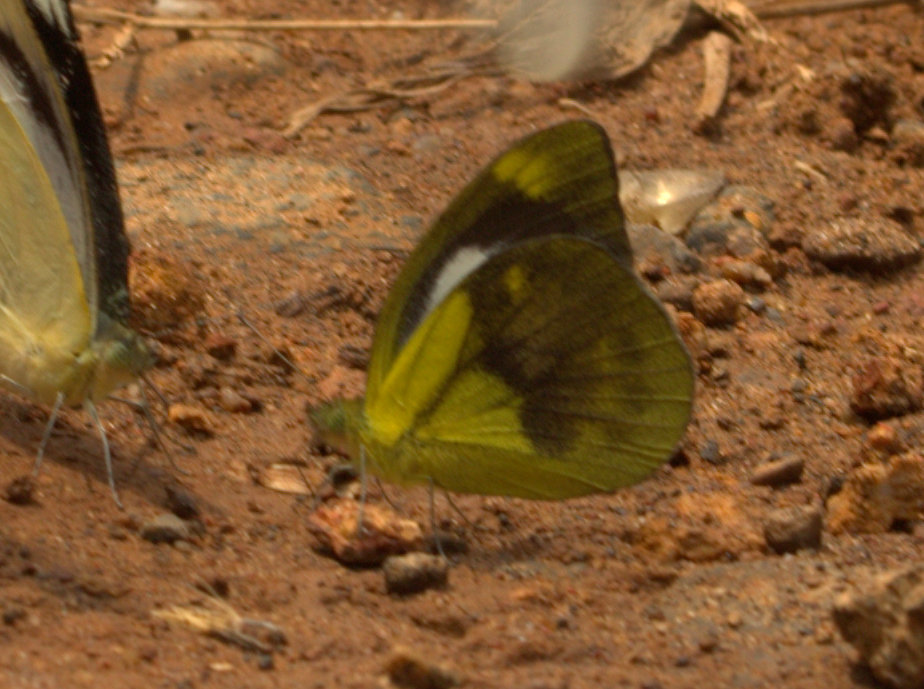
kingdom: Animalia
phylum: Arthropoda
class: Insecta
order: Lepidoptera
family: Pieridae
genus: Cepora
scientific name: Cepora nadina
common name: Lesser gull
